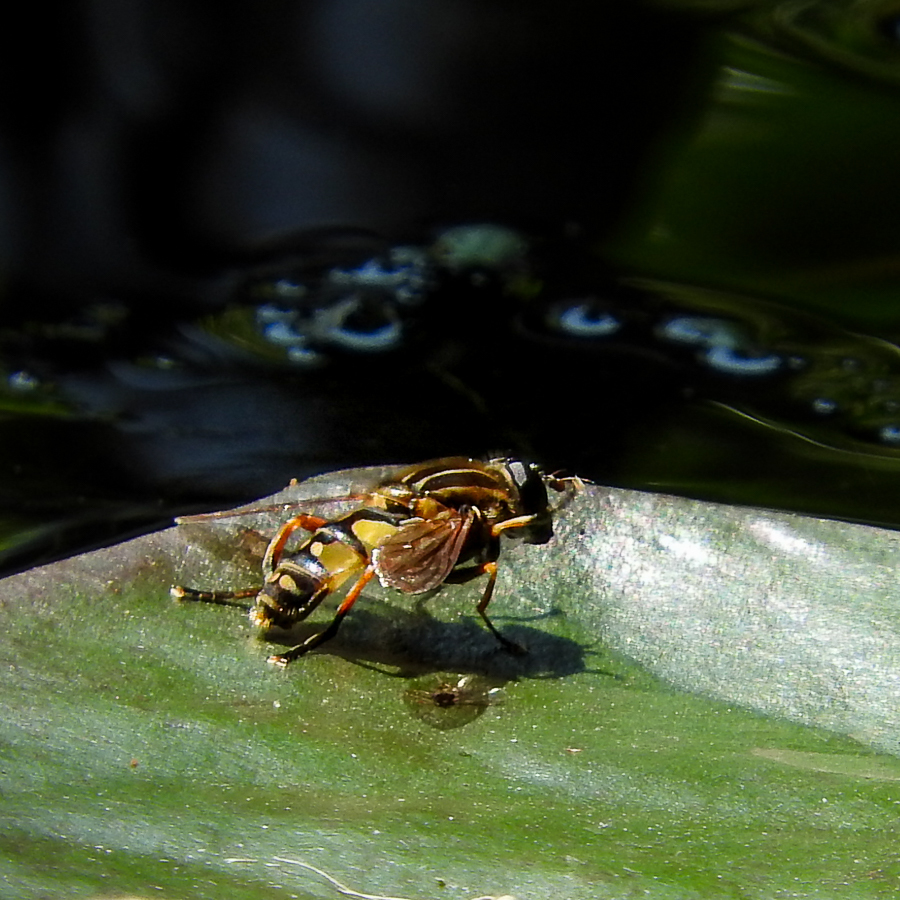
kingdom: Animalia
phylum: Arthropoda
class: Insecta
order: Diptera
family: Syrphidae
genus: Helophilus
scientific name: Helophilus pendulus
